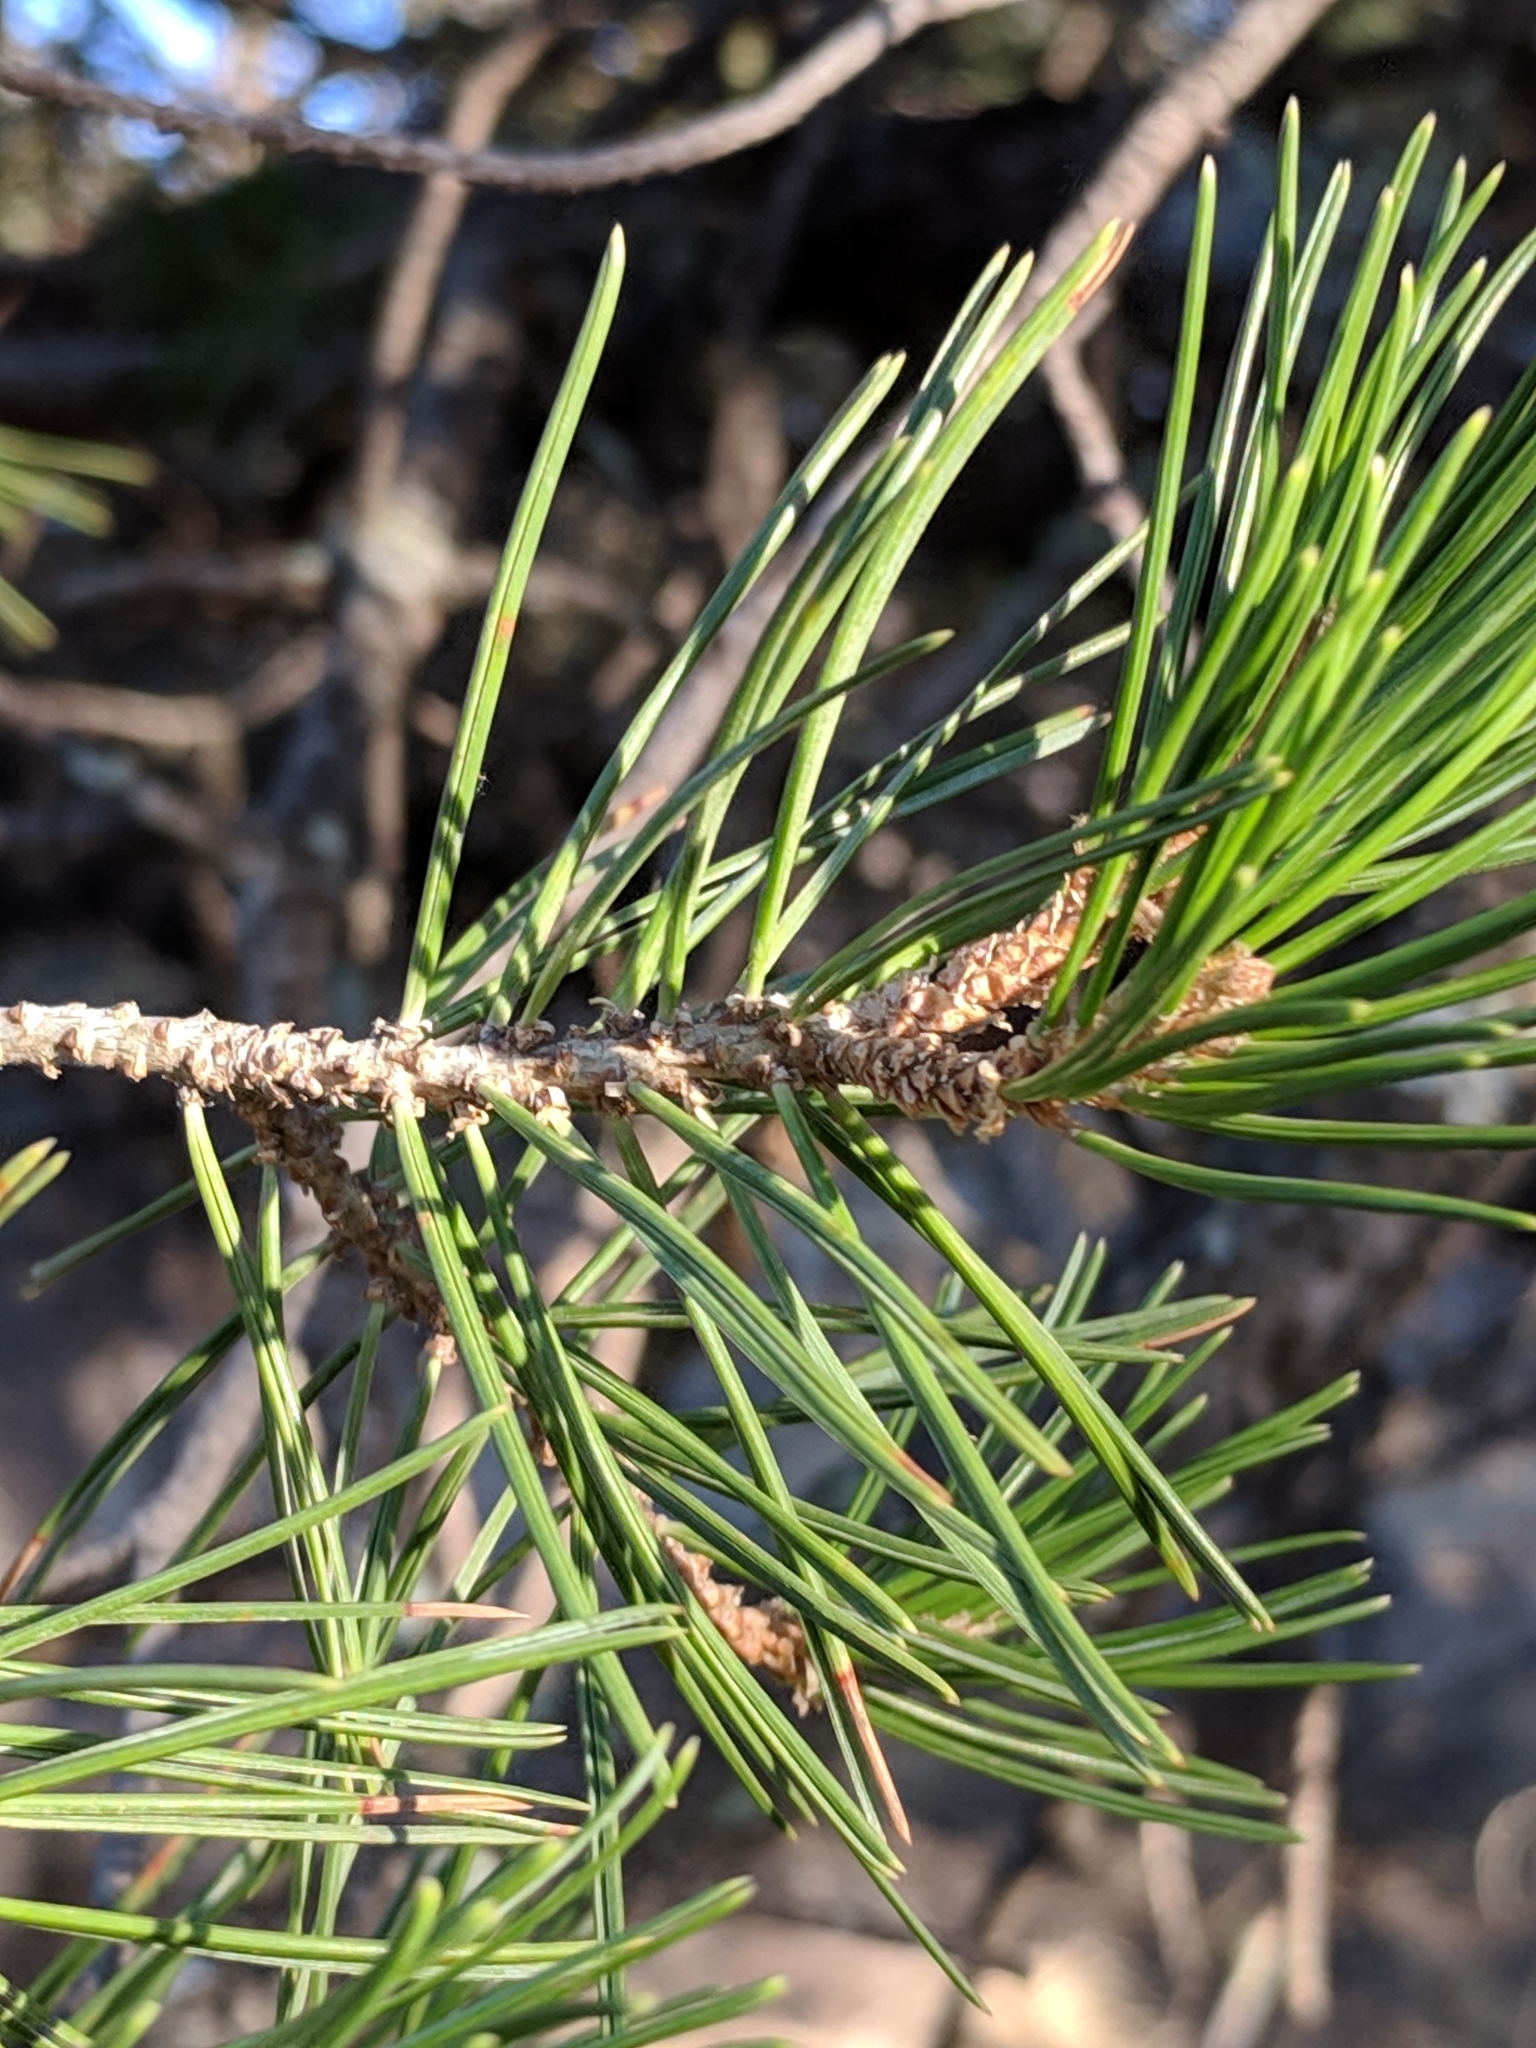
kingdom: Plantae
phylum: Tracheophyta
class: Pinopsida
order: Pinales
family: Pinaceae
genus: Pinus
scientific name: Pinus cembroides
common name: Mexican nut pine
